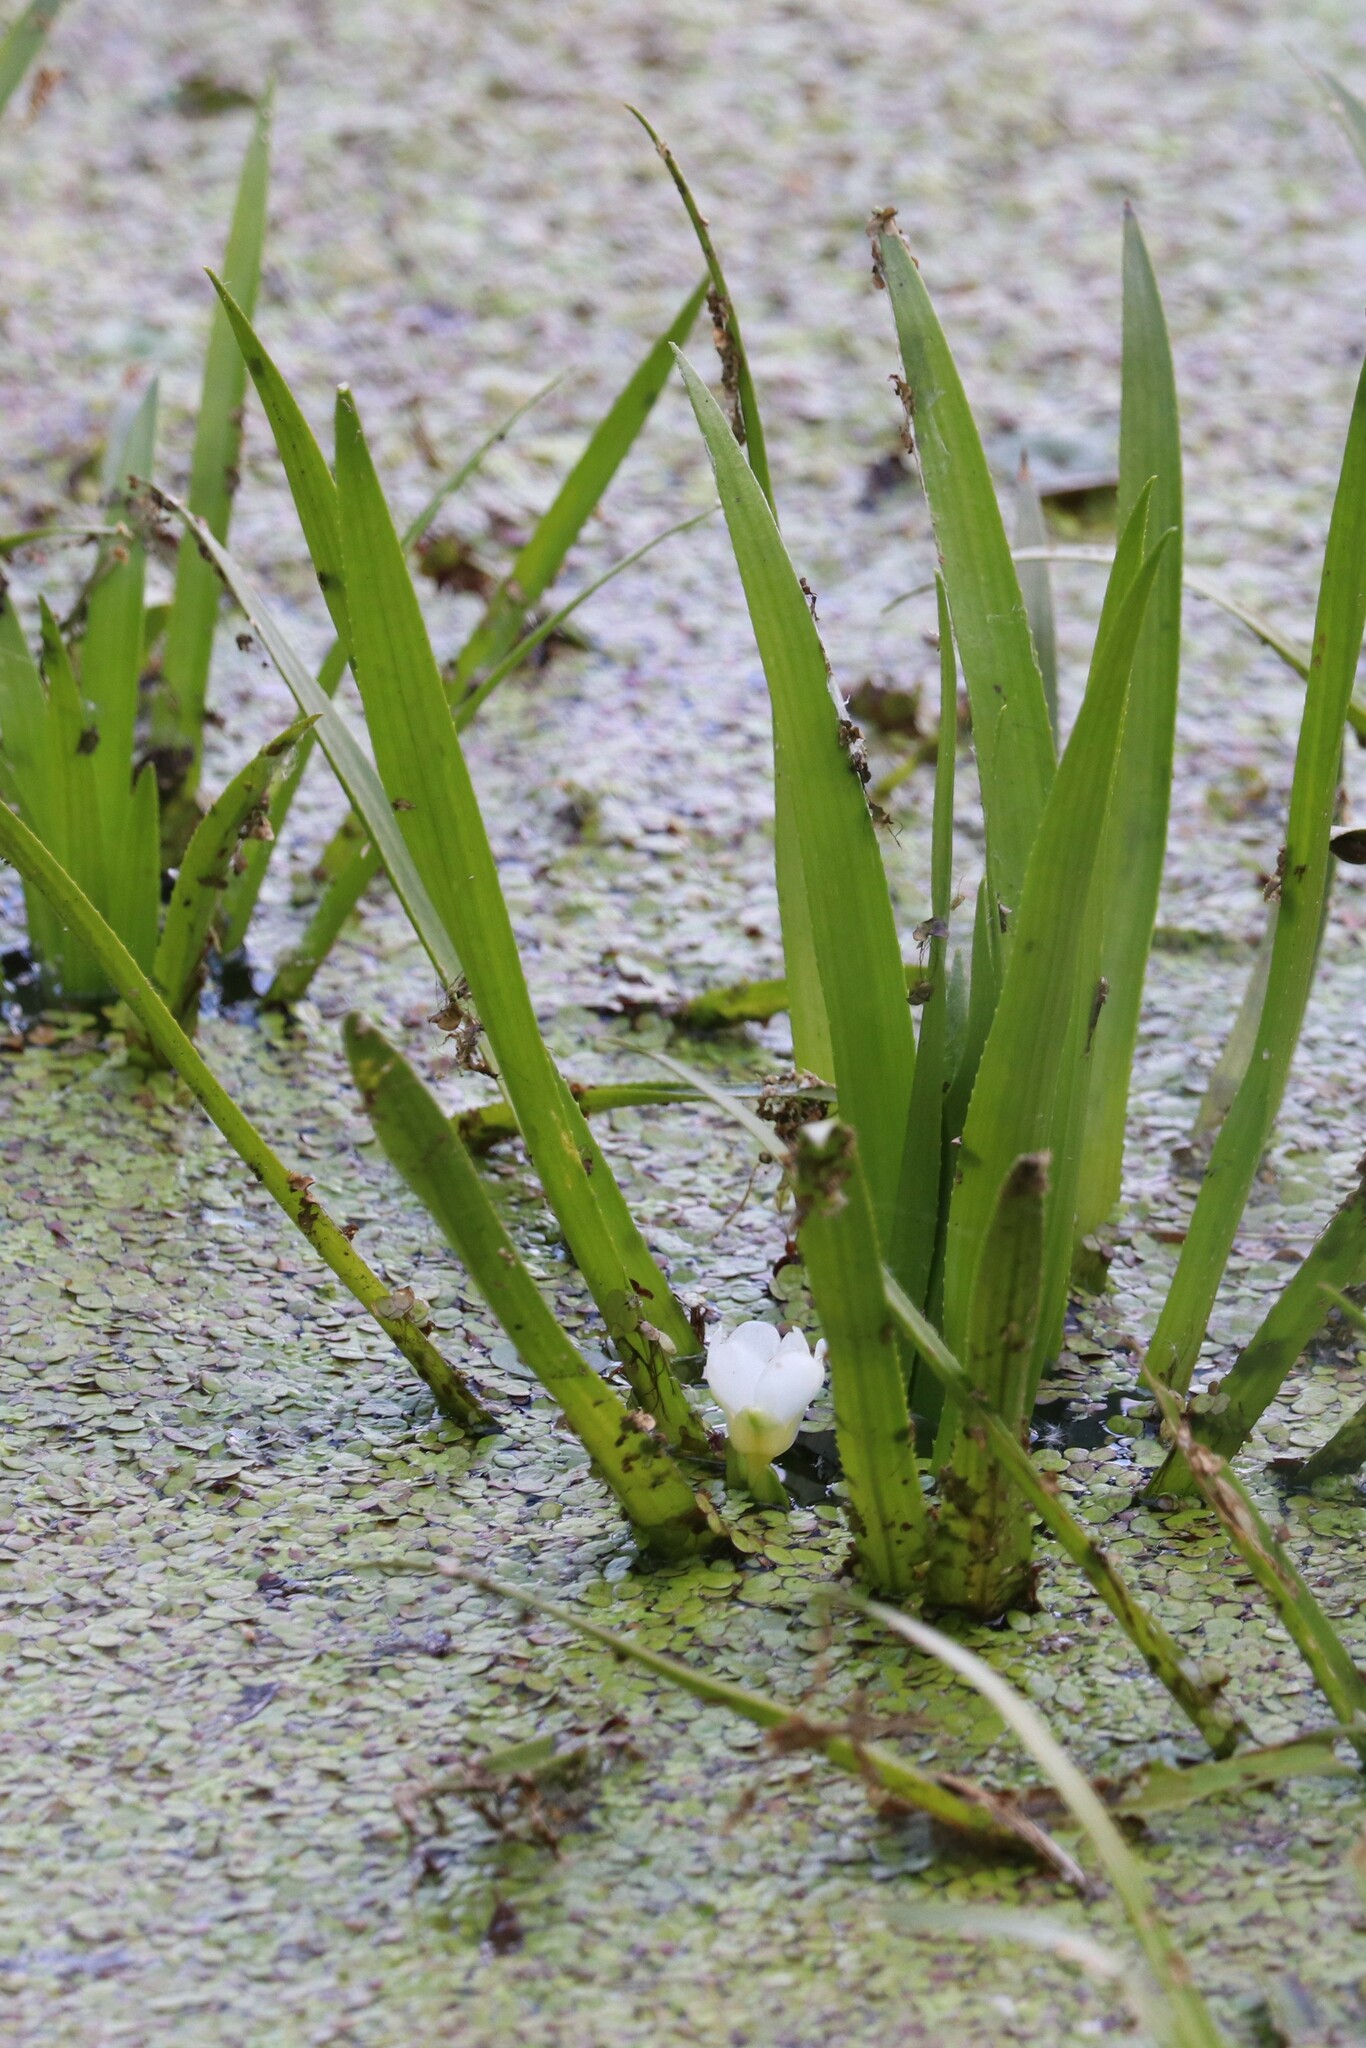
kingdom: Plantae
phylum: Tracheophyta
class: Liliopsida
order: Alismatales
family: Hydrocharitaceae
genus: Stratiotes
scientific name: Stratiotes aloides
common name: Water-soldier
